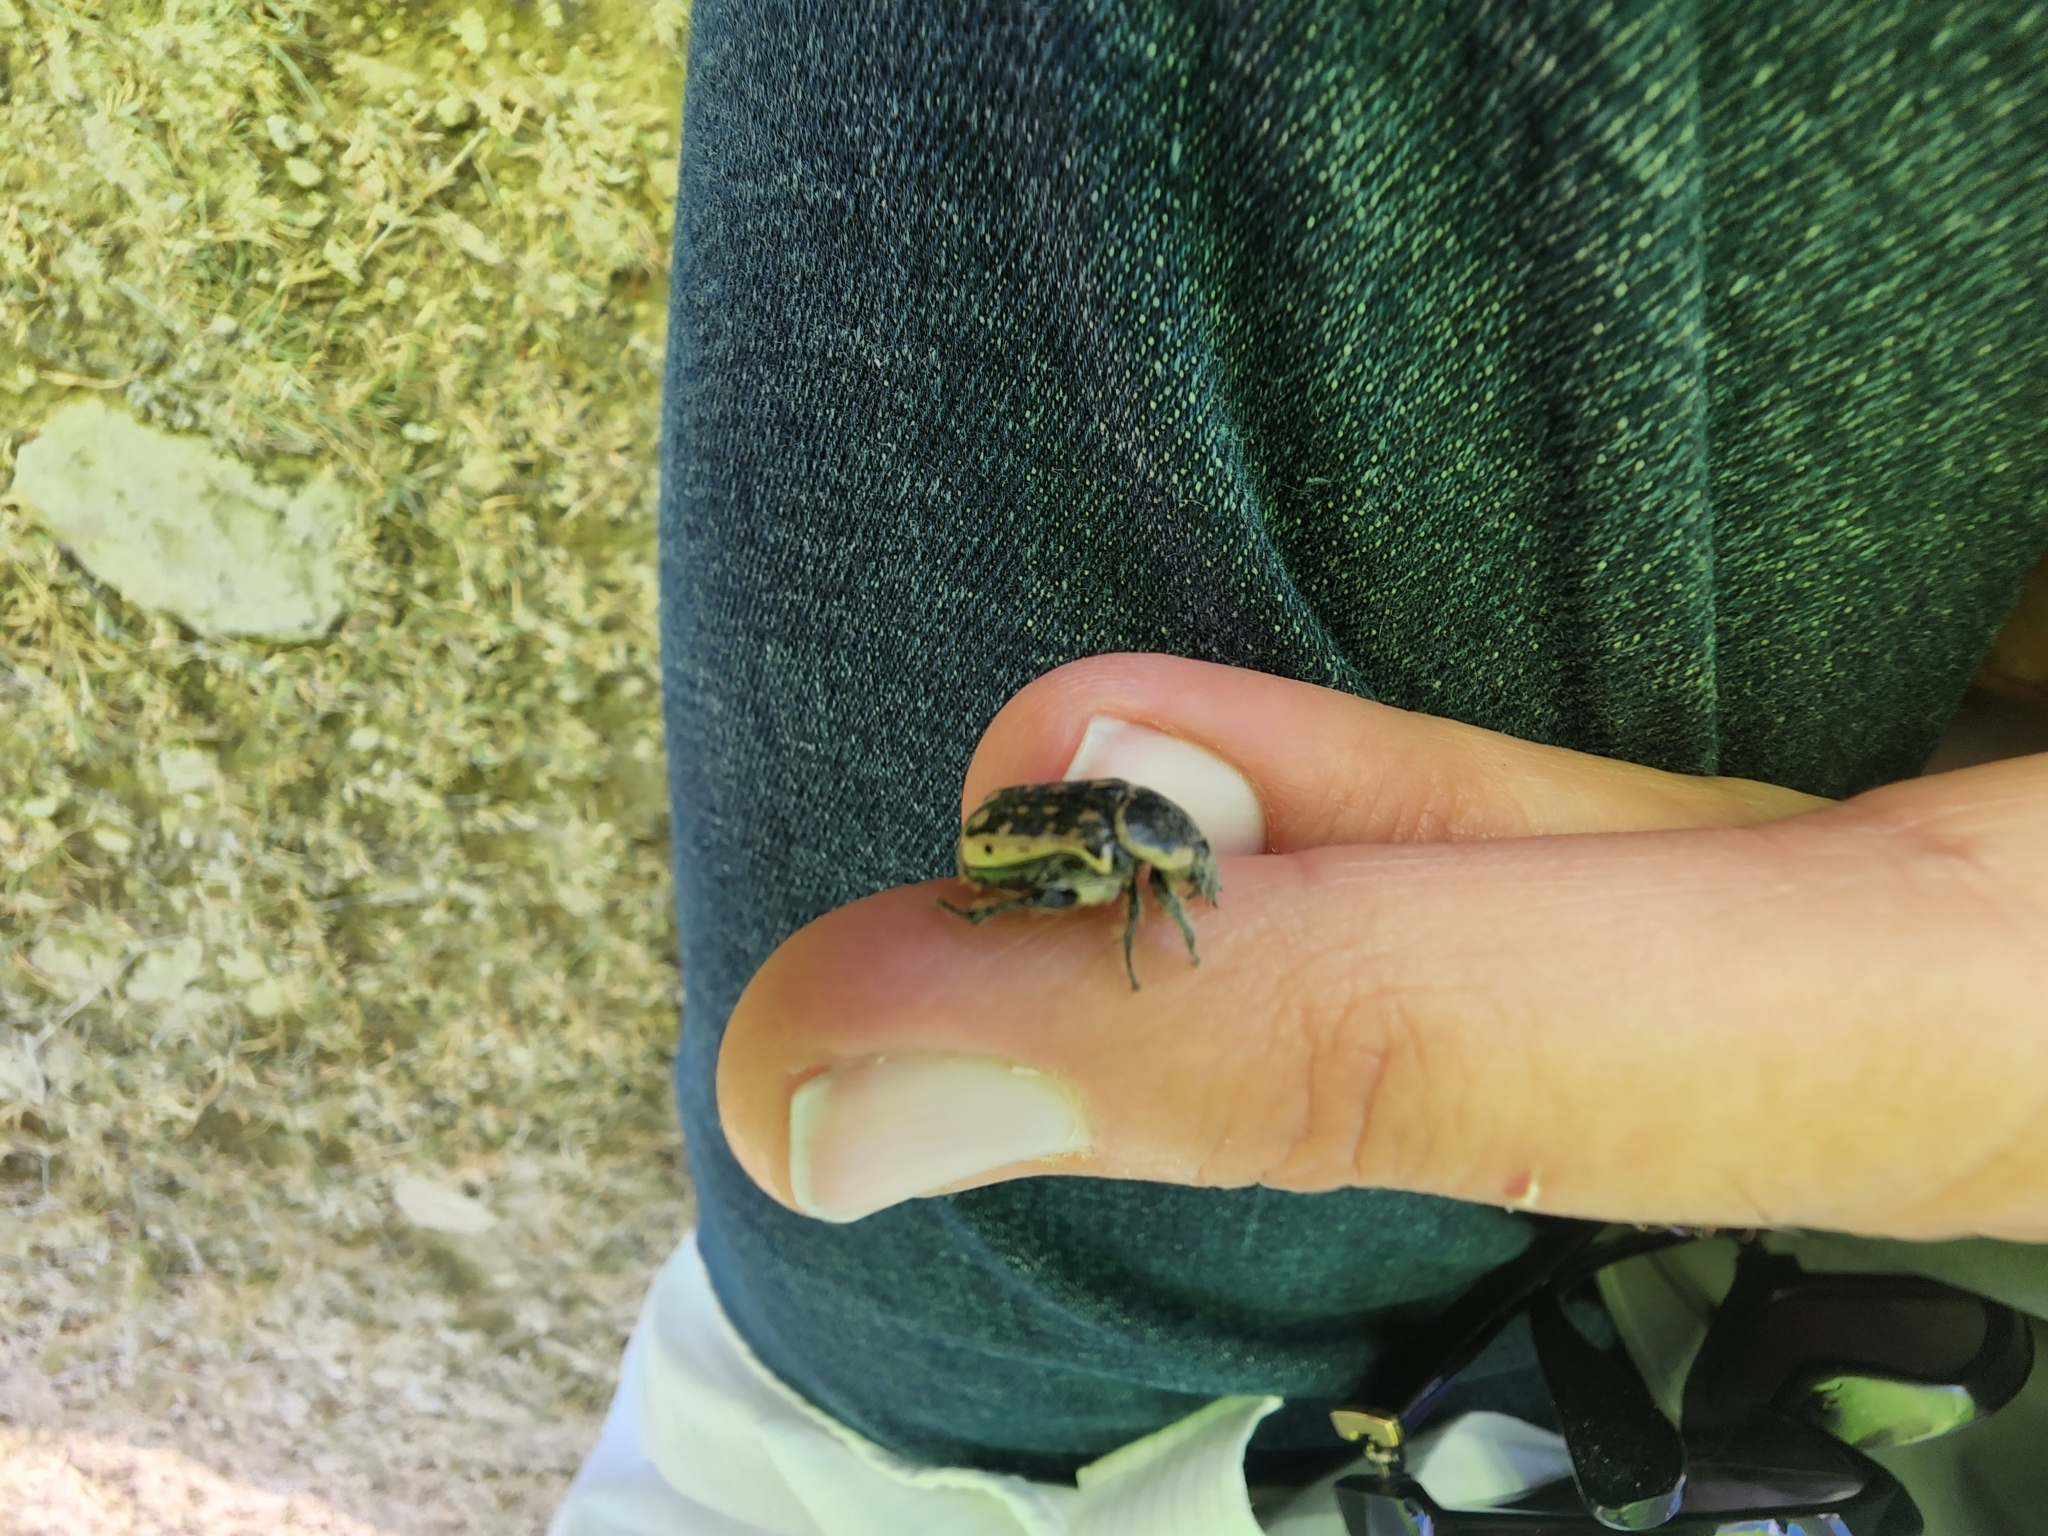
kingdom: Animalia
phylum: Arthropoda
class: Insecta
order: Coleoptera
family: Scarabaeidae
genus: Euphoria
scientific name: Euphoria kernii
